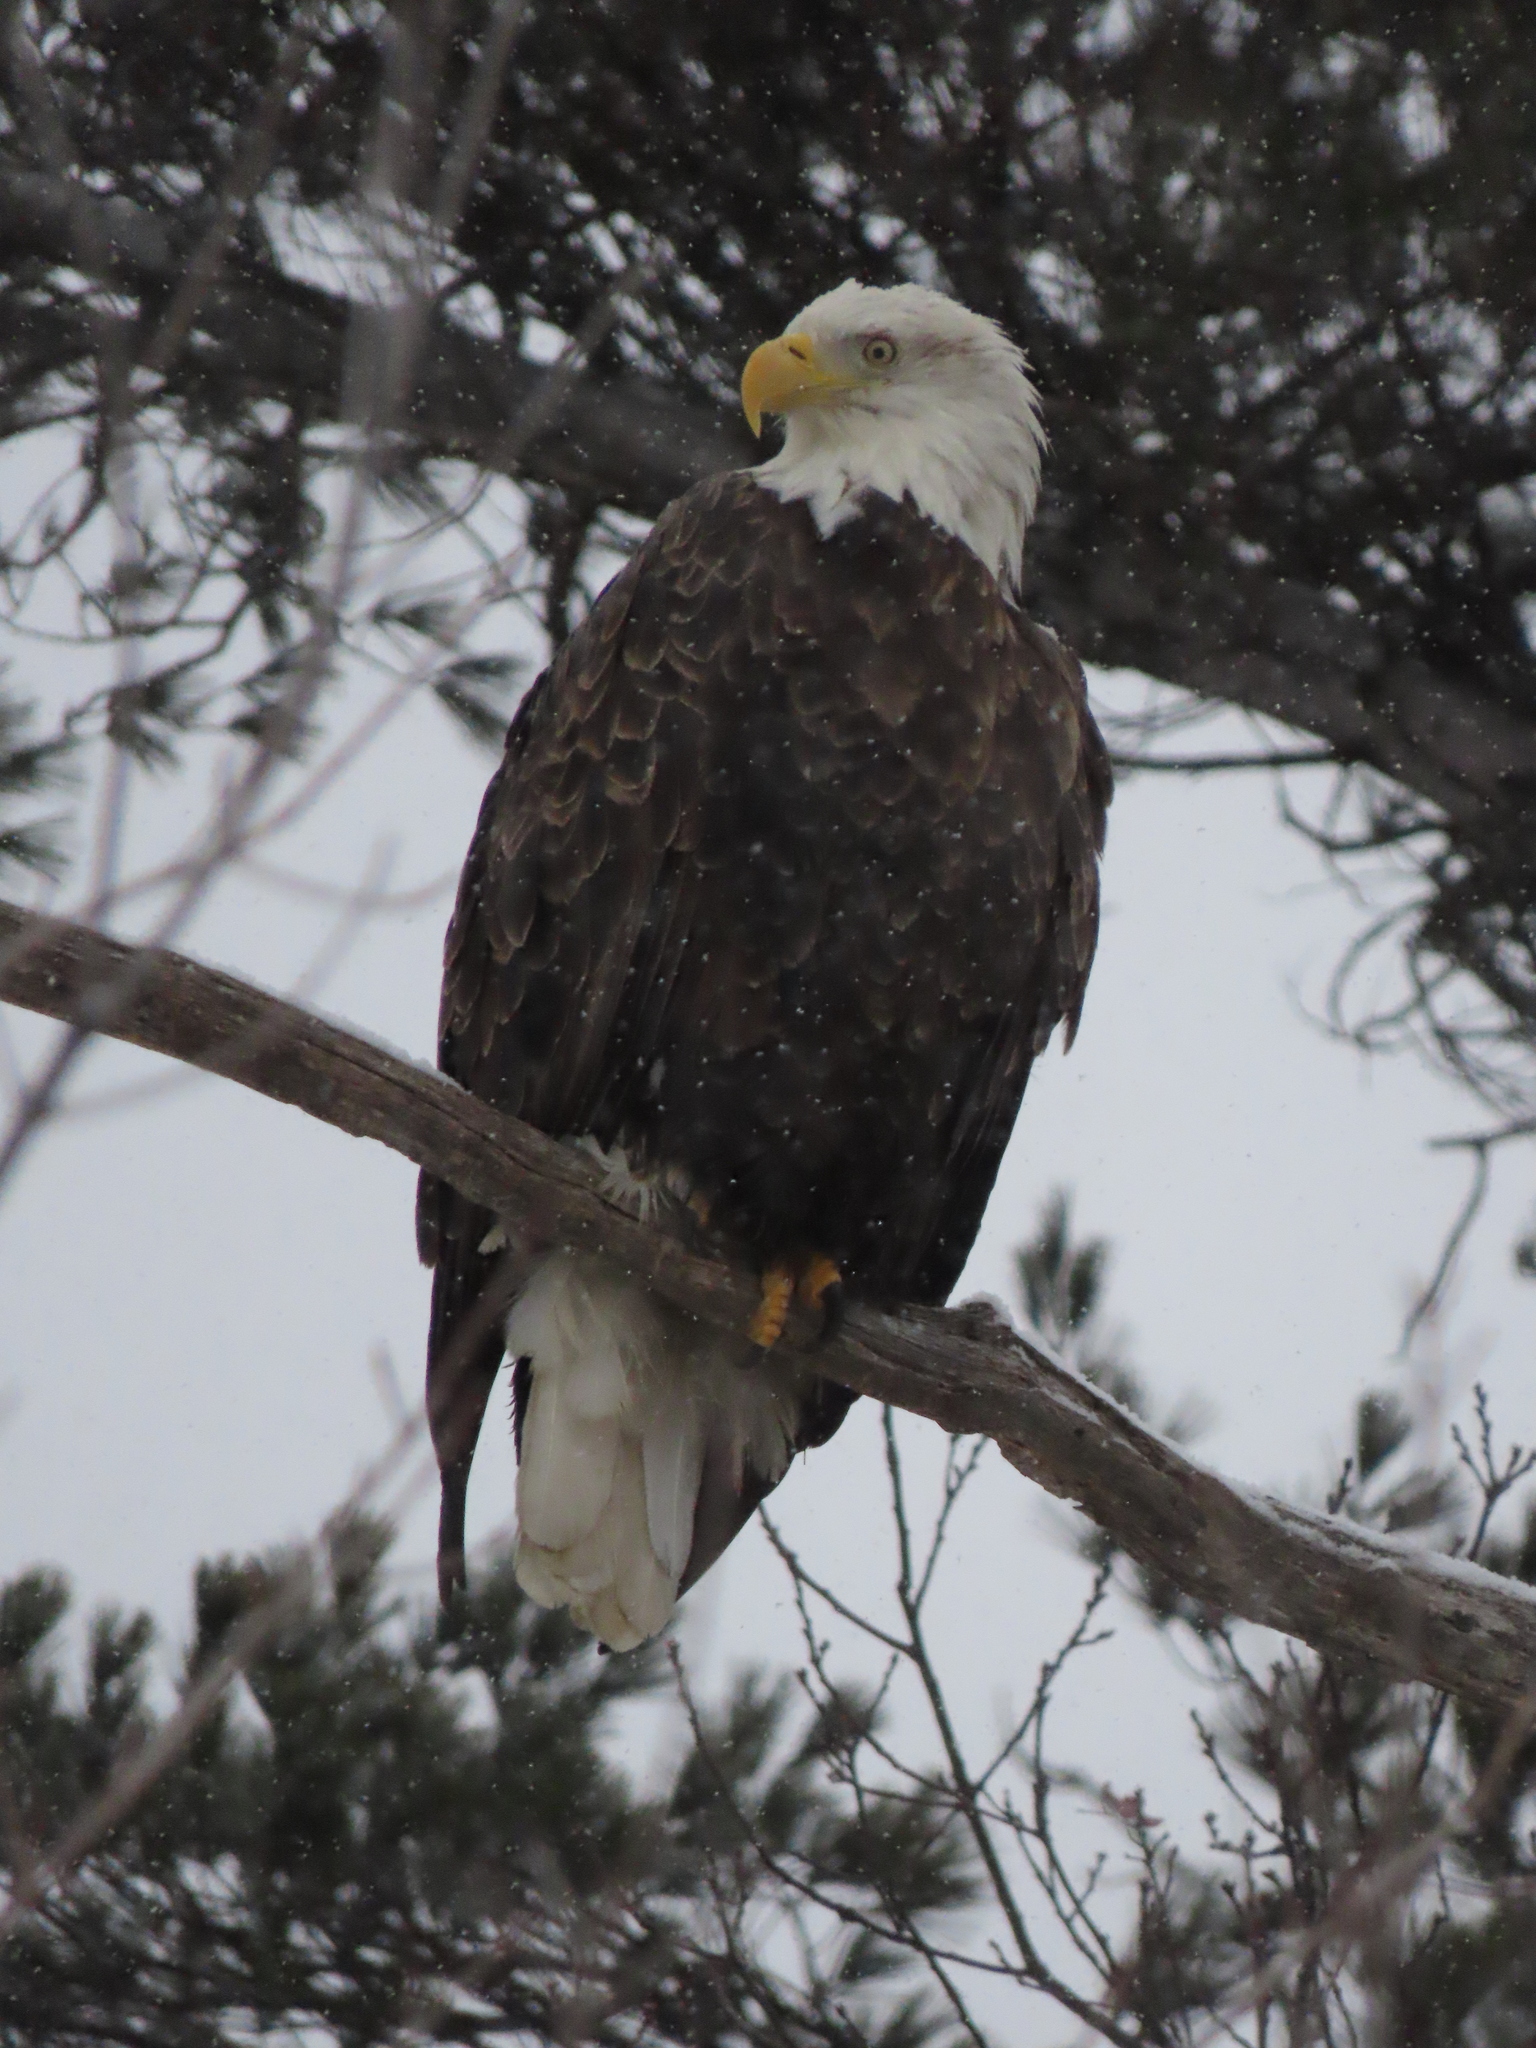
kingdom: Animalia
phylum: Chordata
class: Aves
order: Accipitriformes
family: Accipitridae
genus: Haliaeetus
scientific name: Haliaeetus leucocephalus
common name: Bald eagle
